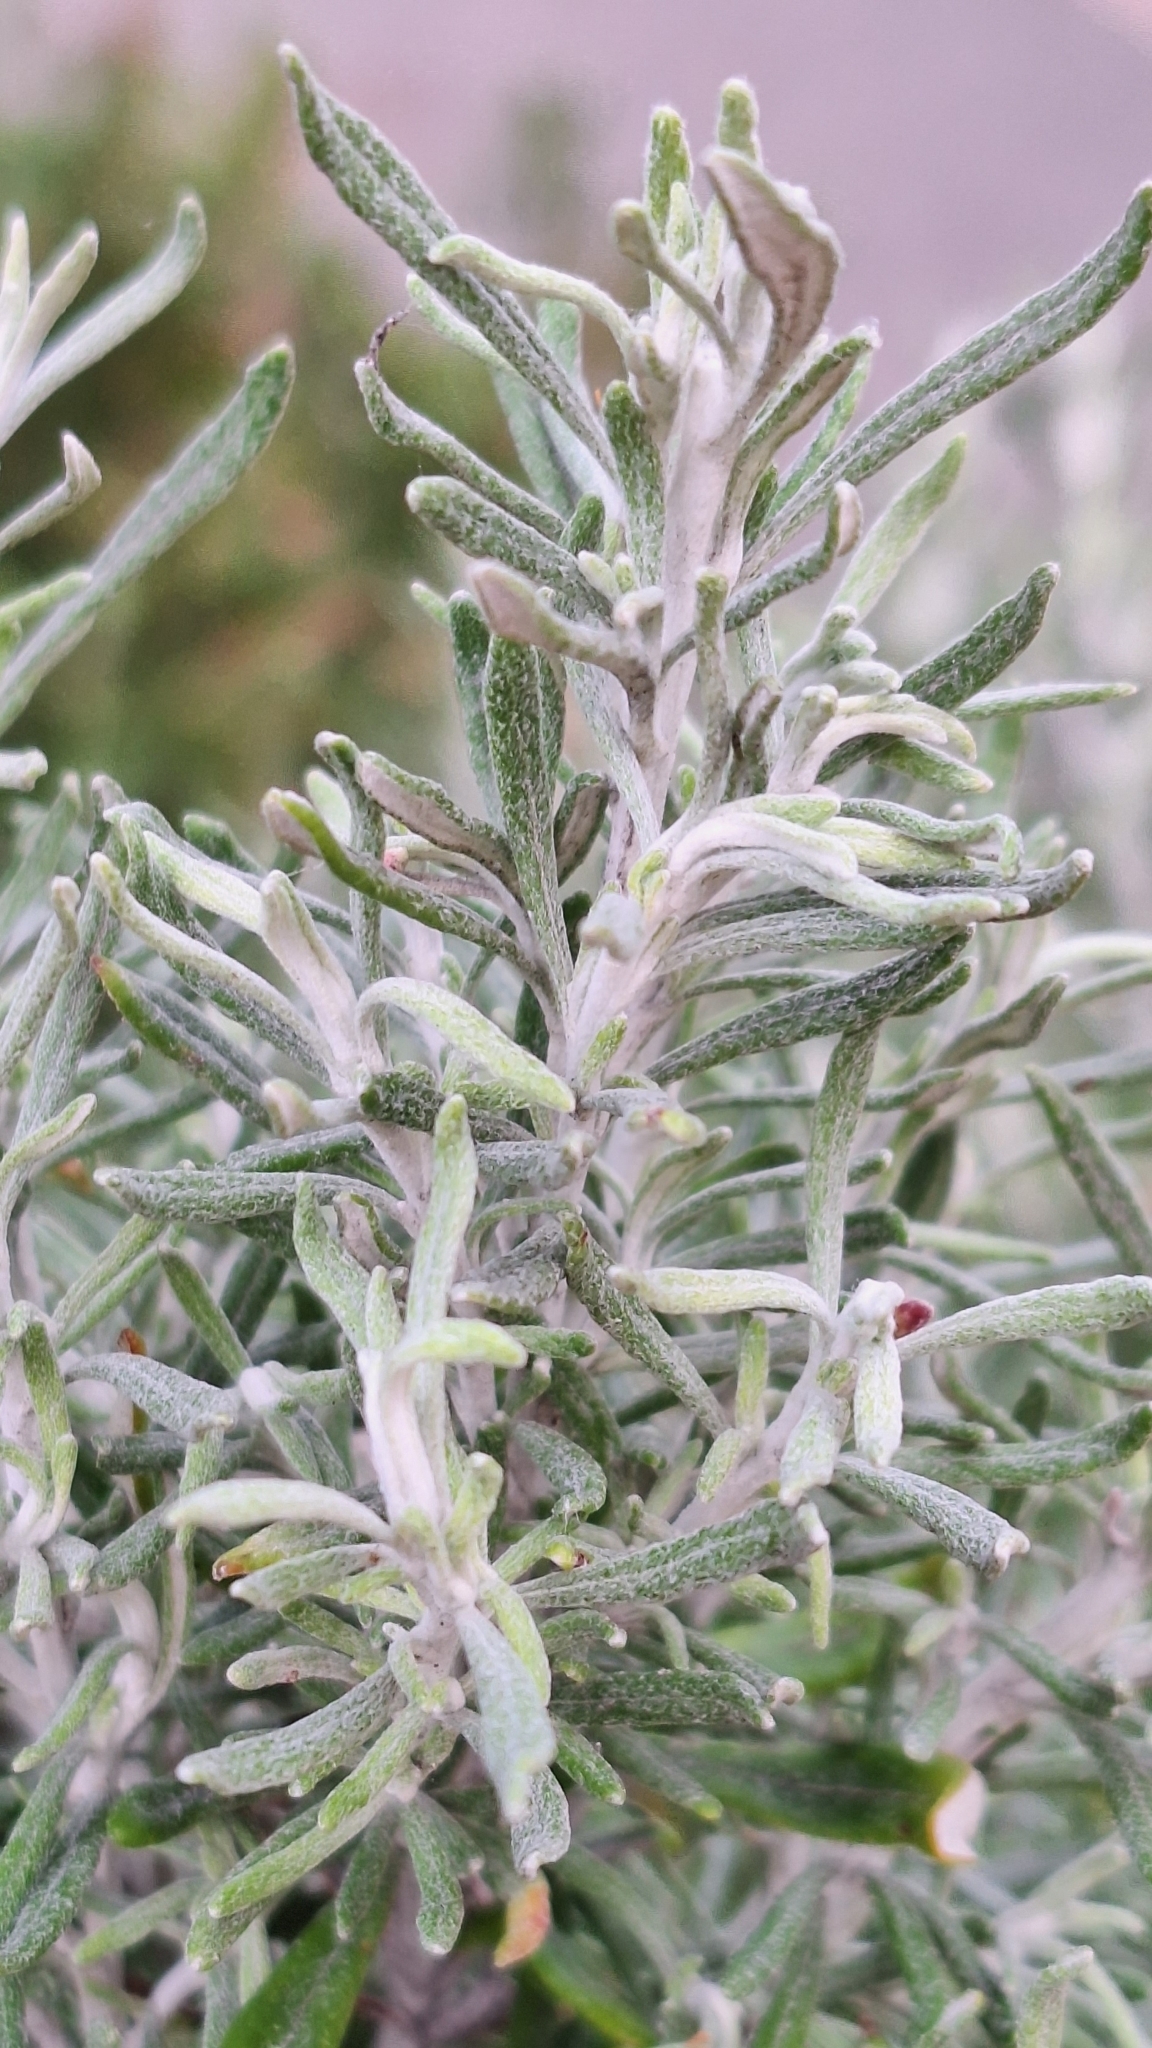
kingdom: Plantae
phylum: Tracheophyta
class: Magnoliopsida
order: Asterales
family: Asteraceae
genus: Olearia
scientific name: Olearia axillaris
